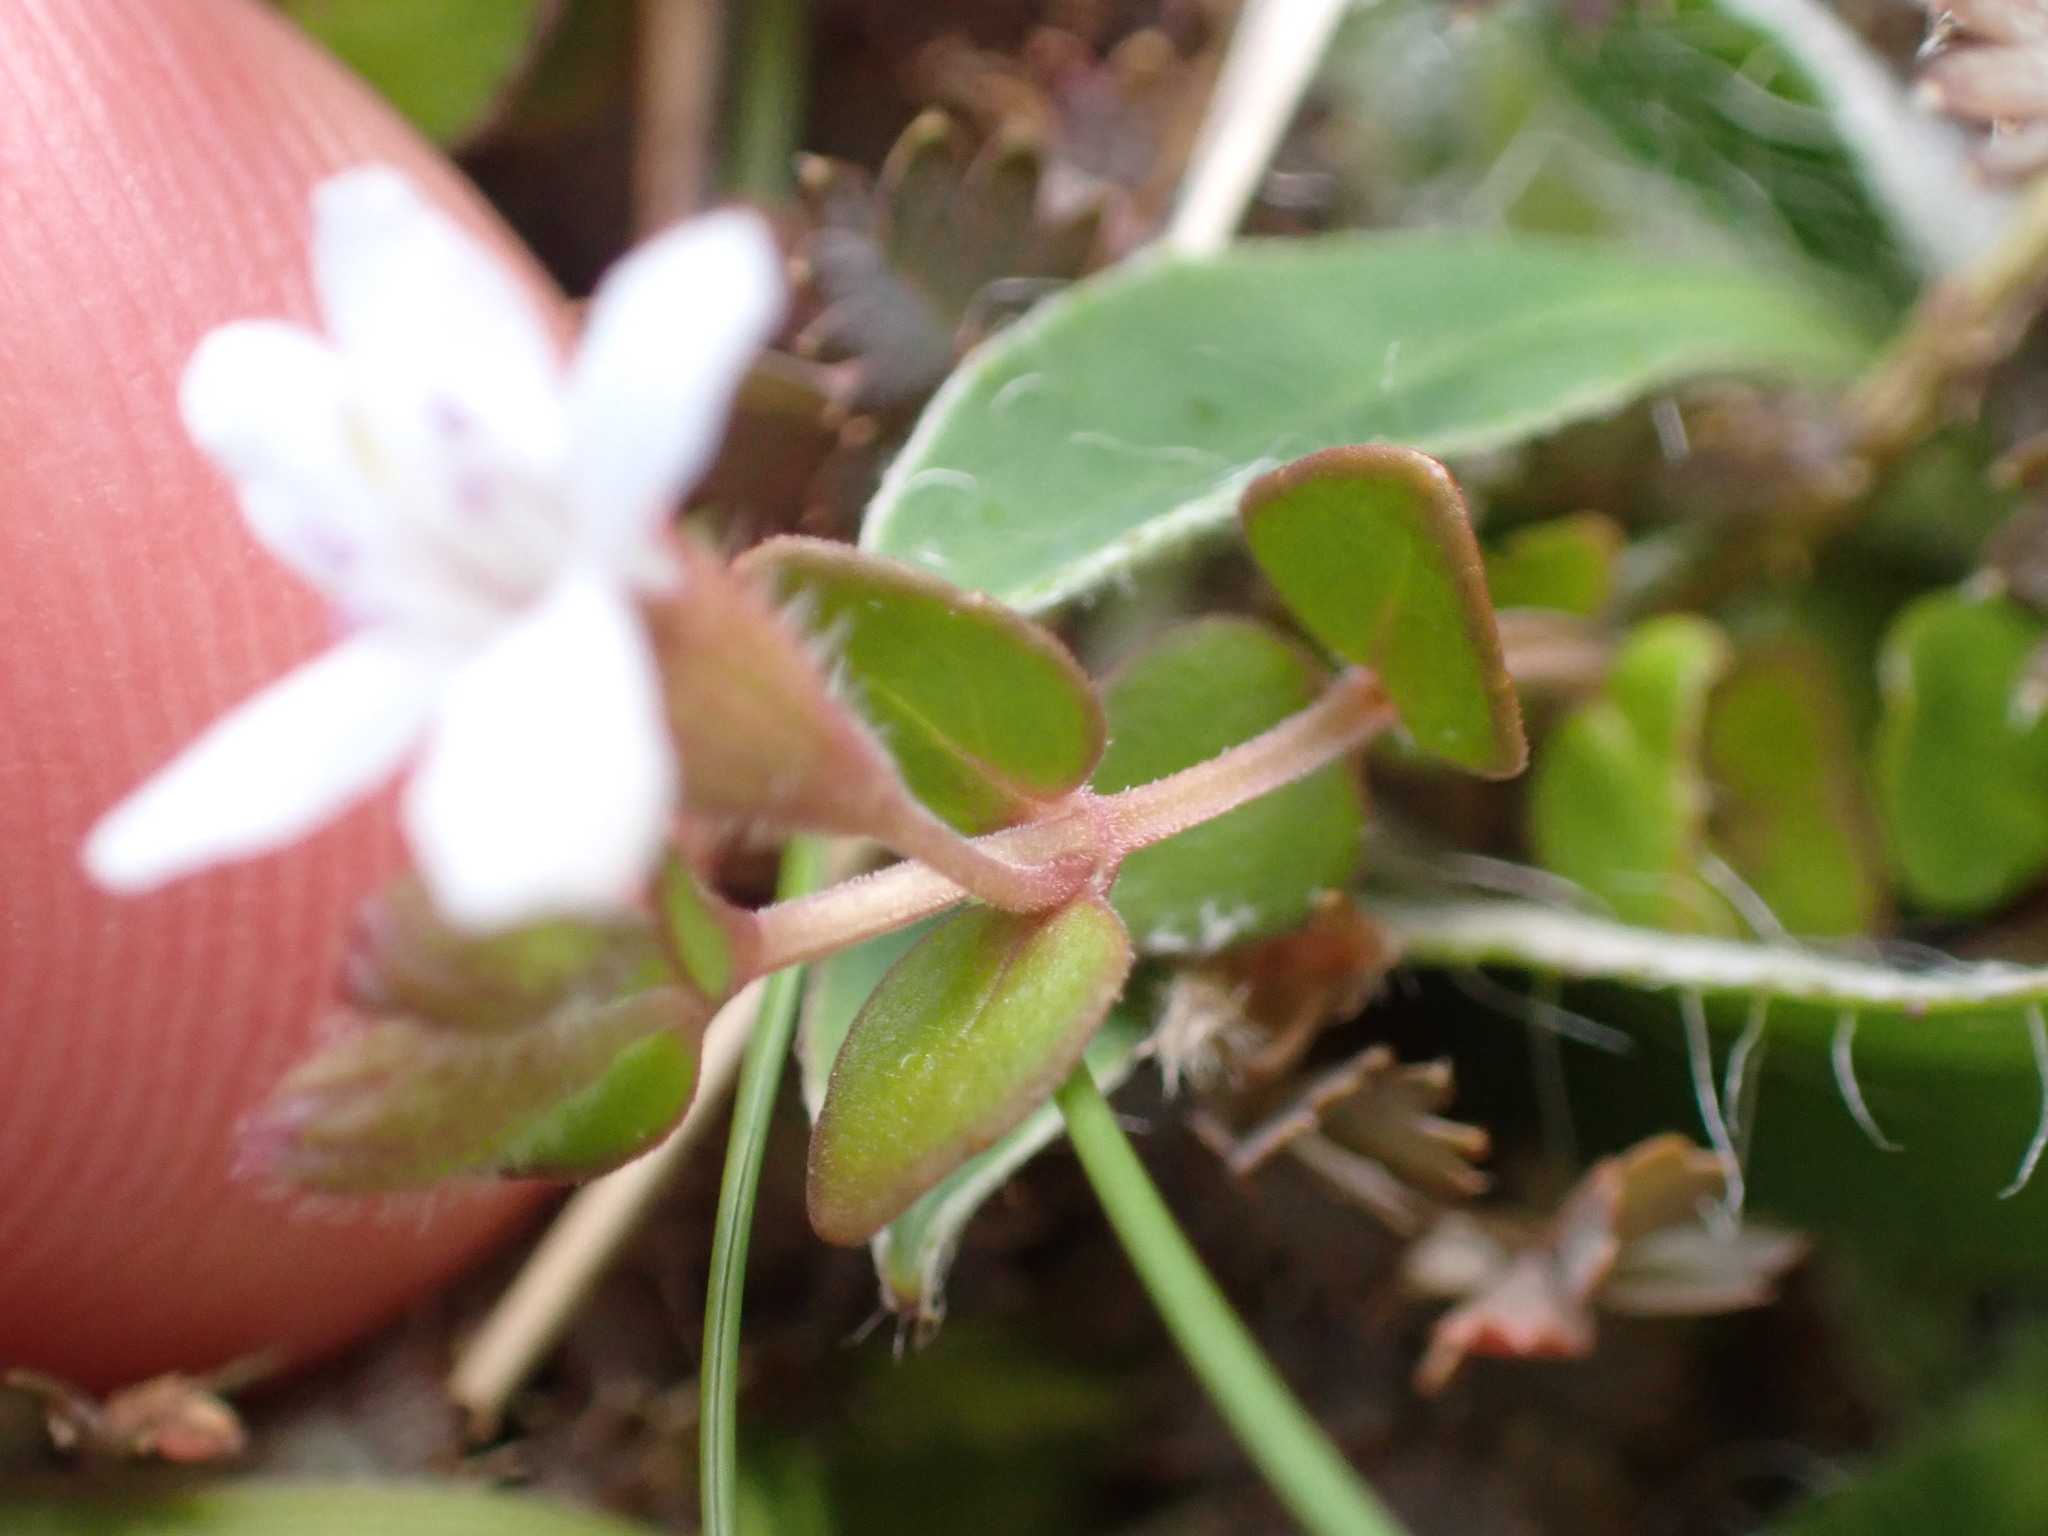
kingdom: Plantae
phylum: Tracheophyta
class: Magnoliopsida
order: Lamiales
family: Lamiaceae
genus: Mentha
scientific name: Mentha cunninghamii
